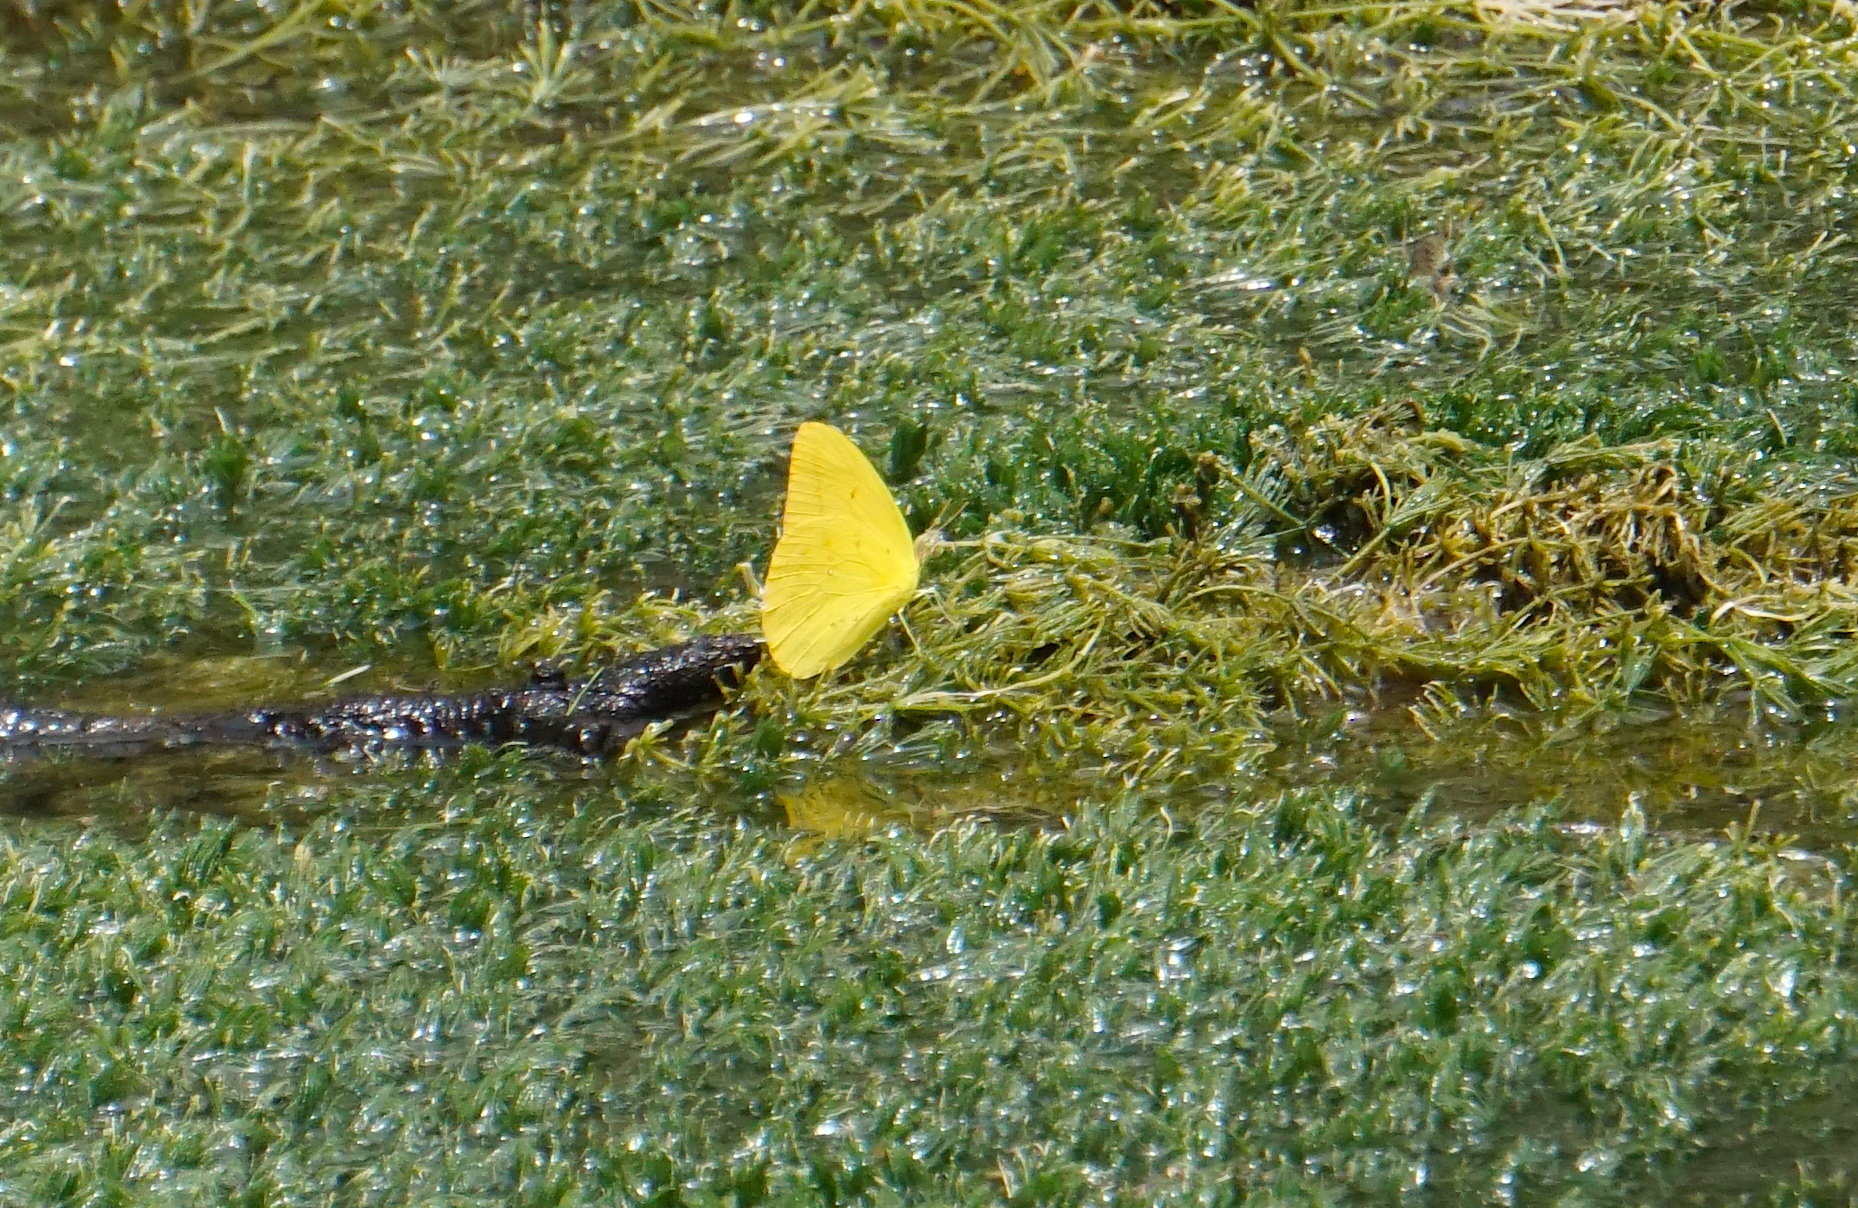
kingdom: Animalia
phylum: Arthropoda
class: Insecta
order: Lepidoptera
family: Pieridae
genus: Phoebis
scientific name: Phoebis agarithe
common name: Large orange sulphur
